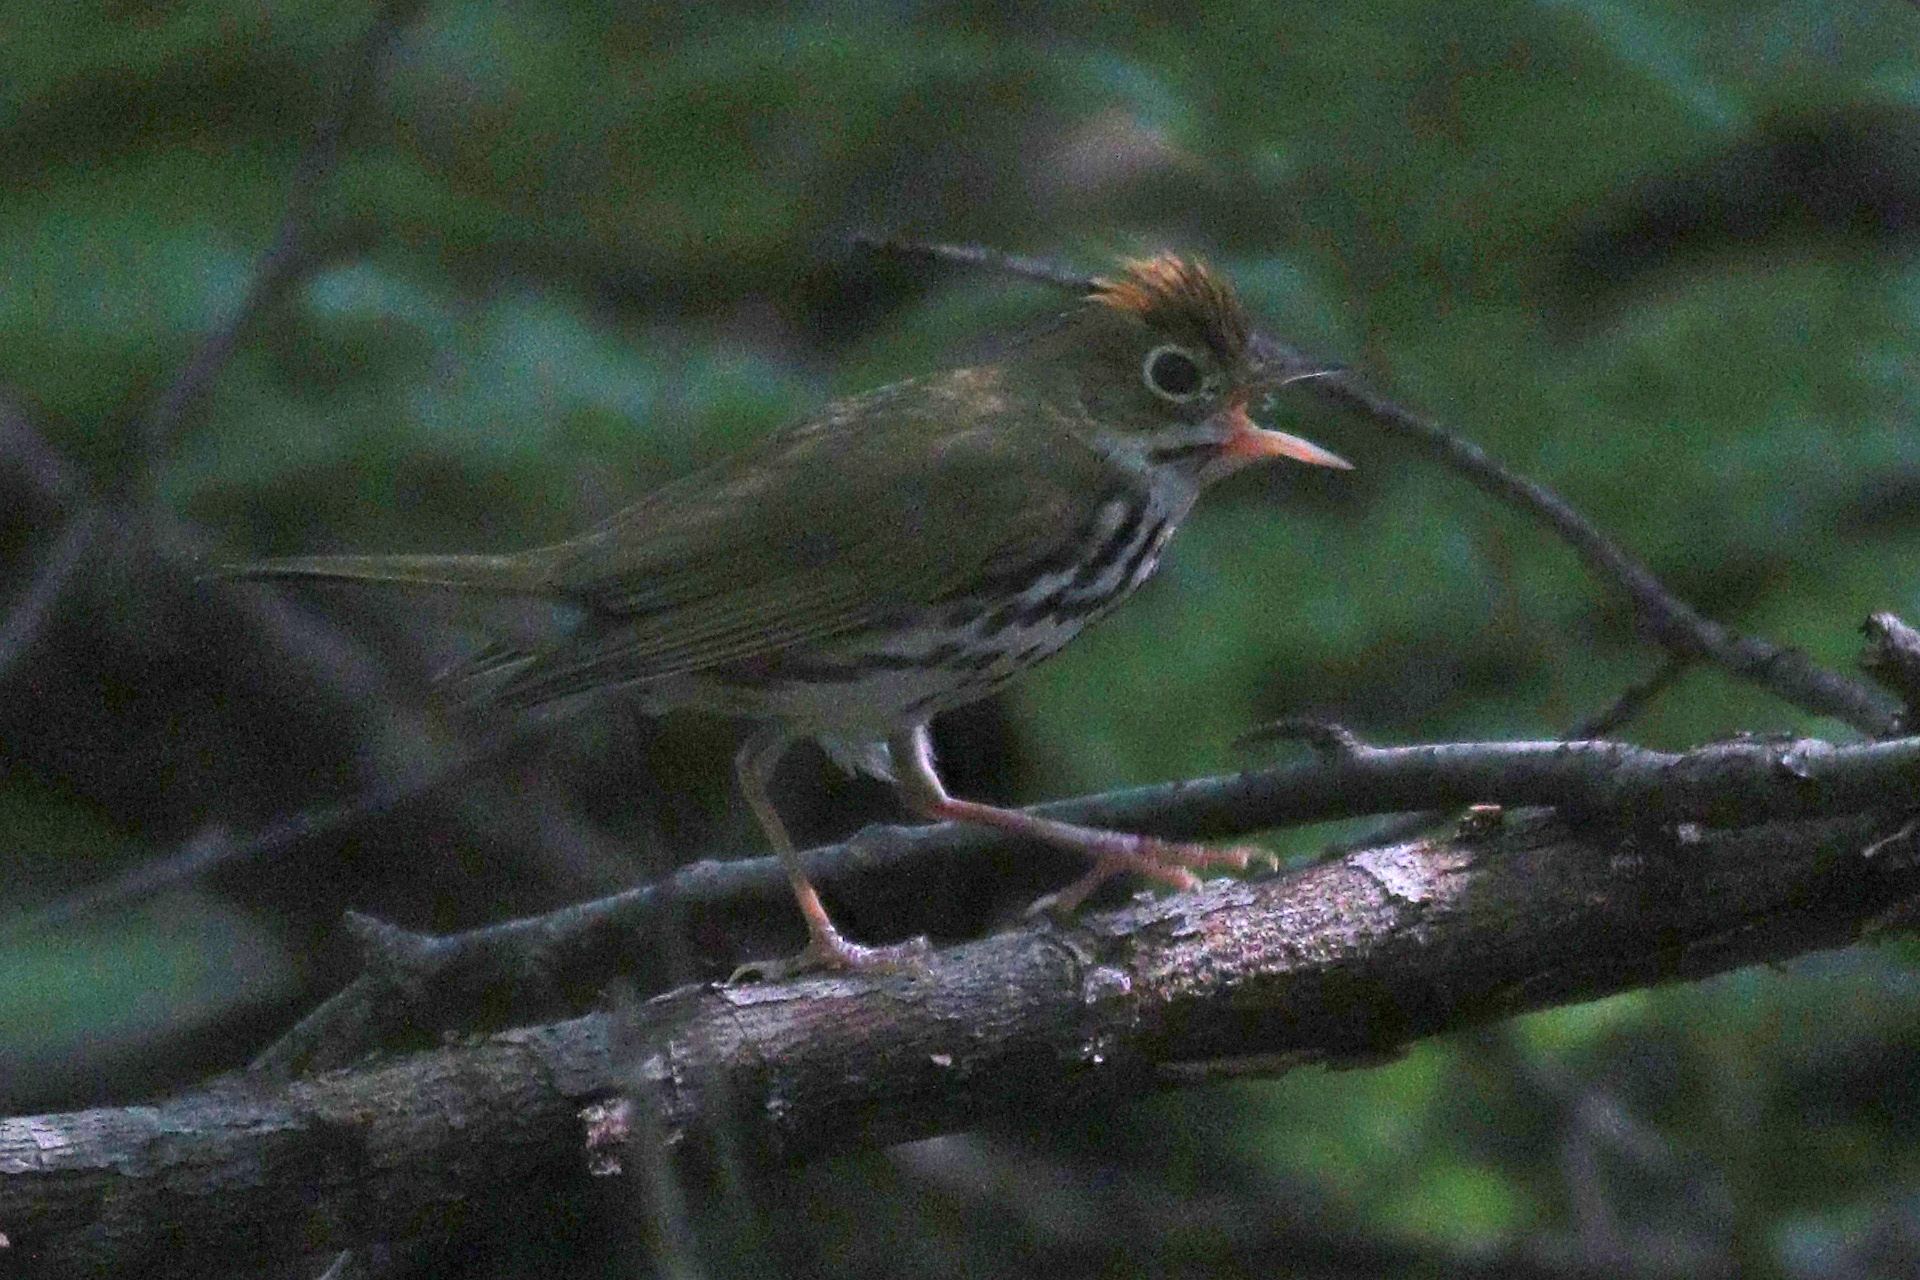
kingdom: Animalia
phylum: Chordata
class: Aves
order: Passeriformes
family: Parulidae
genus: Seiurus
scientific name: Seiurus aurocapilla
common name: Ovenbird
